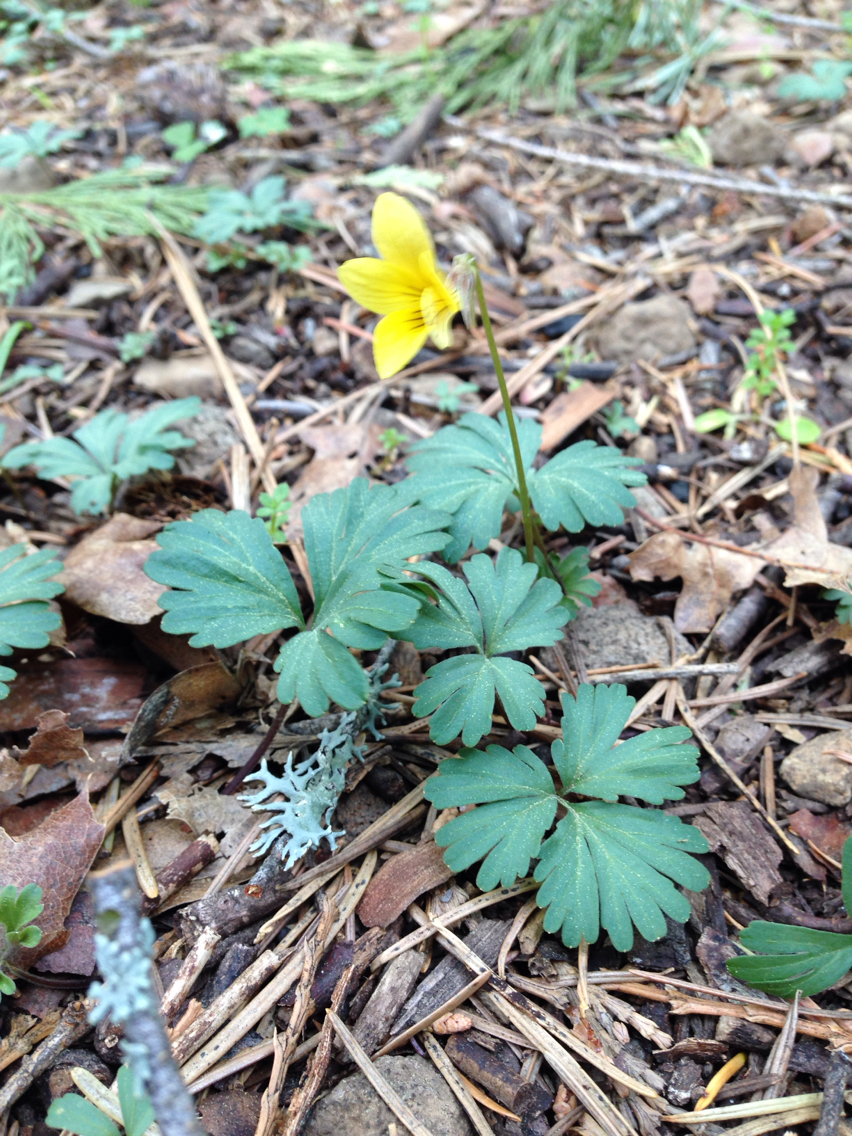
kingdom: Plantae
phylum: Tracheophyta
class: Magnoliopsida
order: Malpighiales
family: Violaceae
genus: Viola
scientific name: Viola sheltonii
